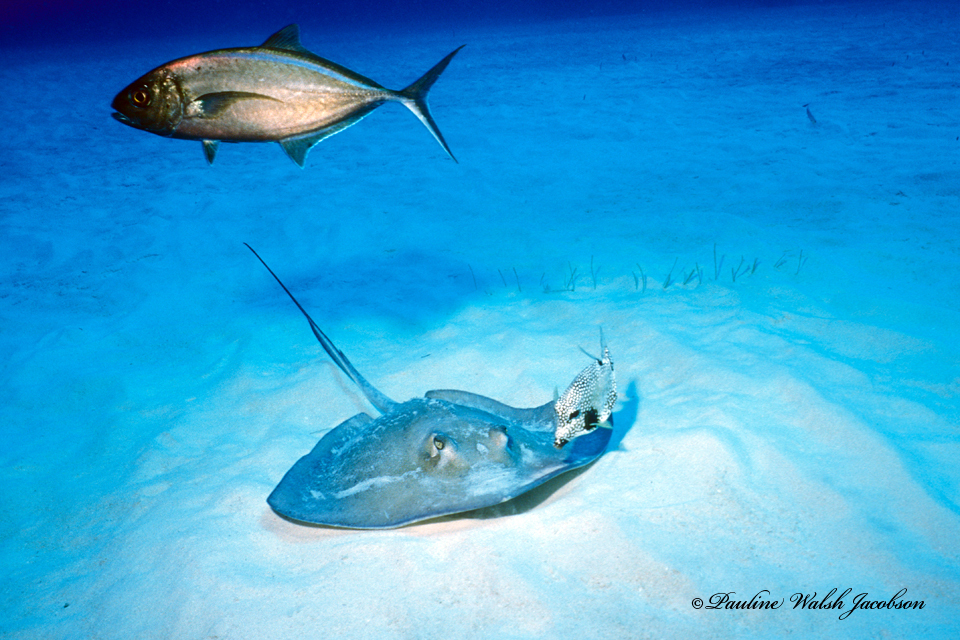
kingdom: Animalia
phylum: Chordata
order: Tetraodontiformes
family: Ostraciidae
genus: Lactophrys
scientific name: Lactophrys triqueter
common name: Smooth trunkfish
